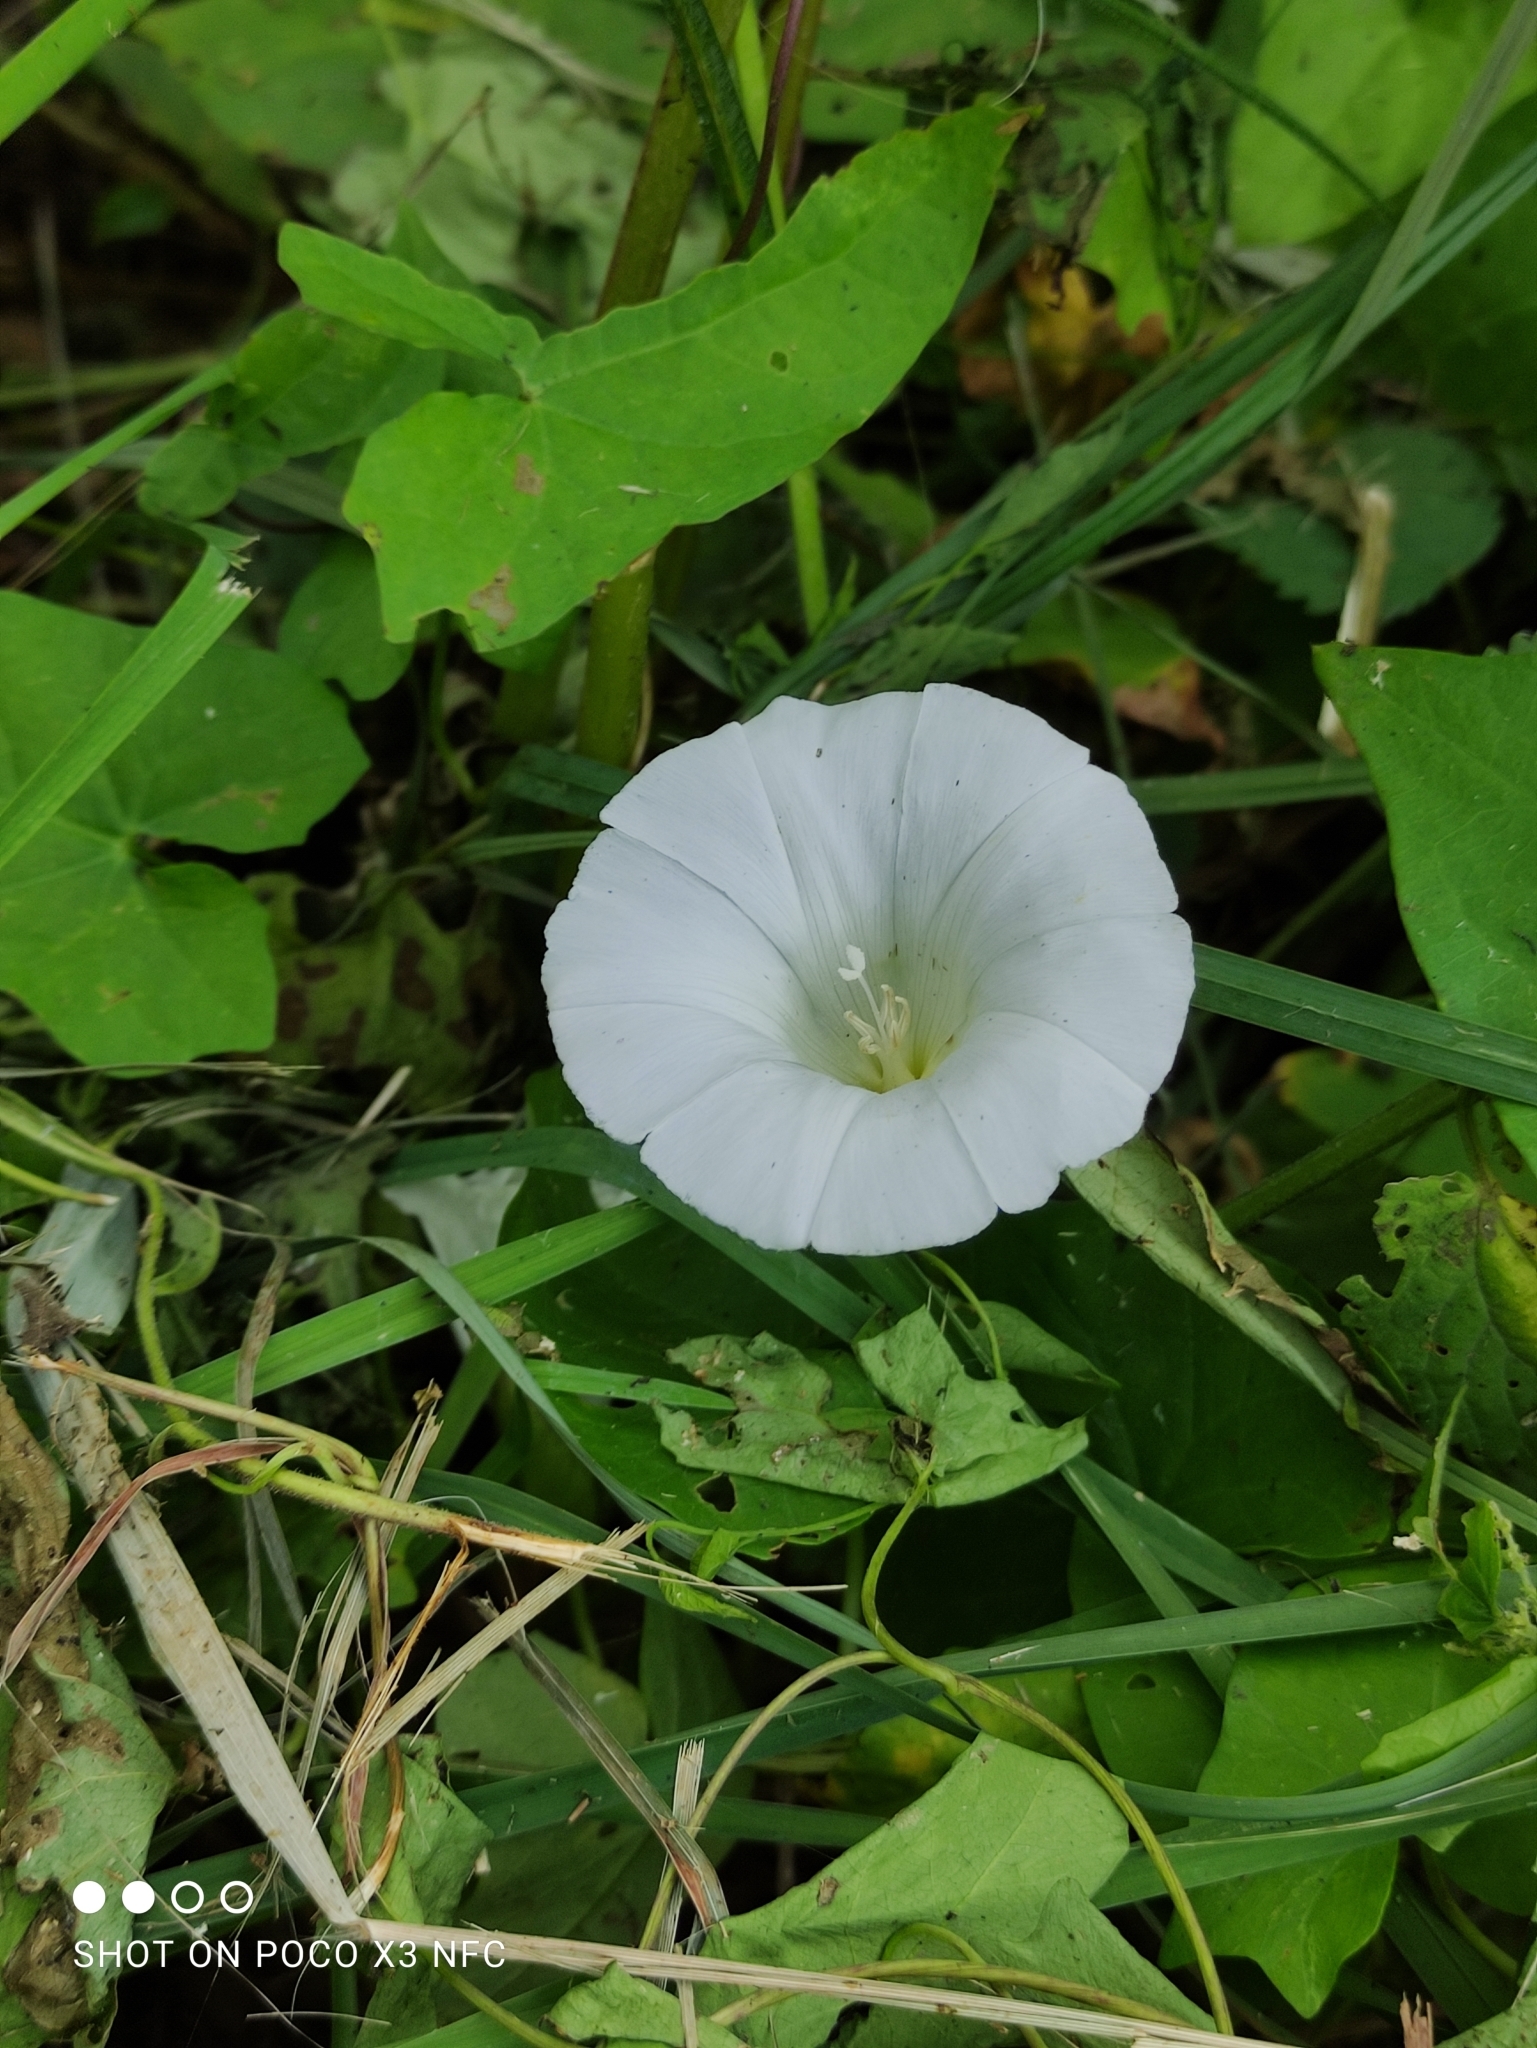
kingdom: Plantae
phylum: Tracheophyta
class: Magnoliopsida
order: Solanales
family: Convolvulaceae
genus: Calystegia
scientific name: Calystegia sepium
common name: Hedge bindweed
